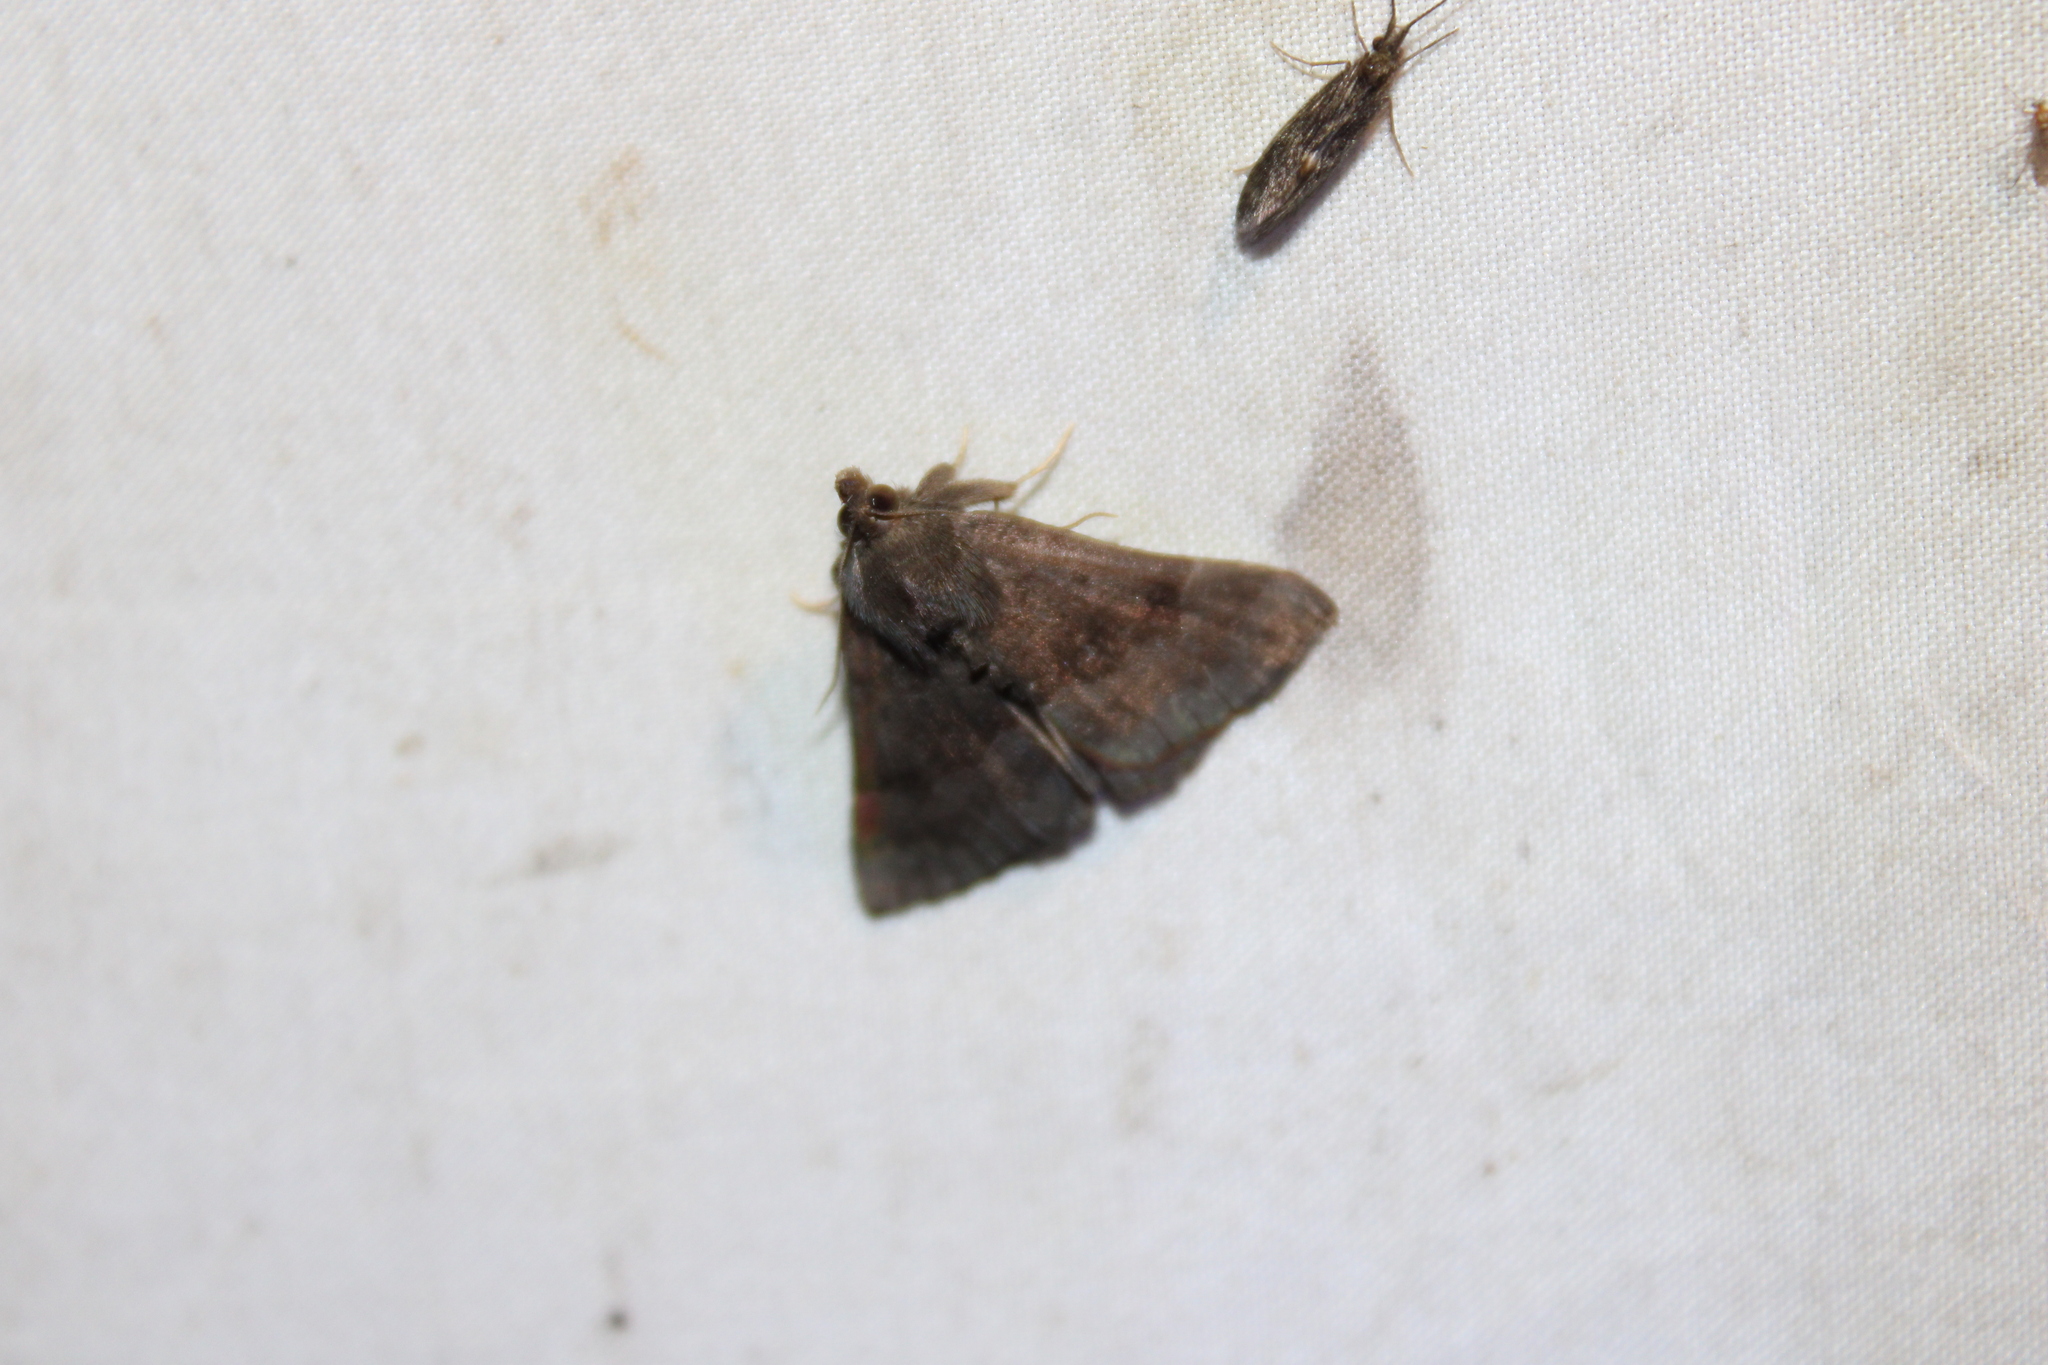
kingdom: Animalia
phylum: Arthropoda
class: Insecta
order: Lepidoptera
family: Erebidae
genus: Hypena
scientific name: Hypena madefactalis
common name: Gray-edged snout
